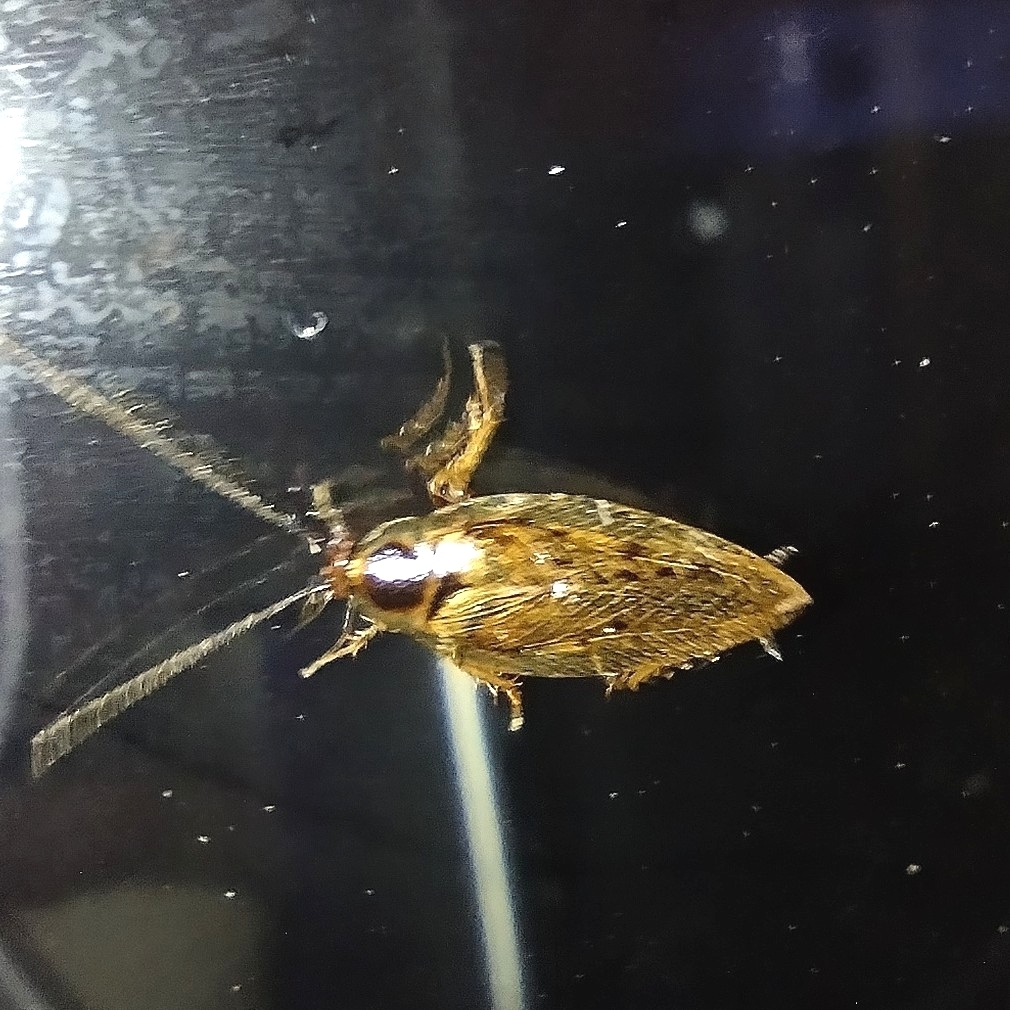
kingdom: Animalia
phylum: Arthropoda
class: Insecta
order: Blattodea
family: Ectobiidae
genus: Ectobius
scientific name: Ectobius lapponicus
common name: Dusky cockroach
